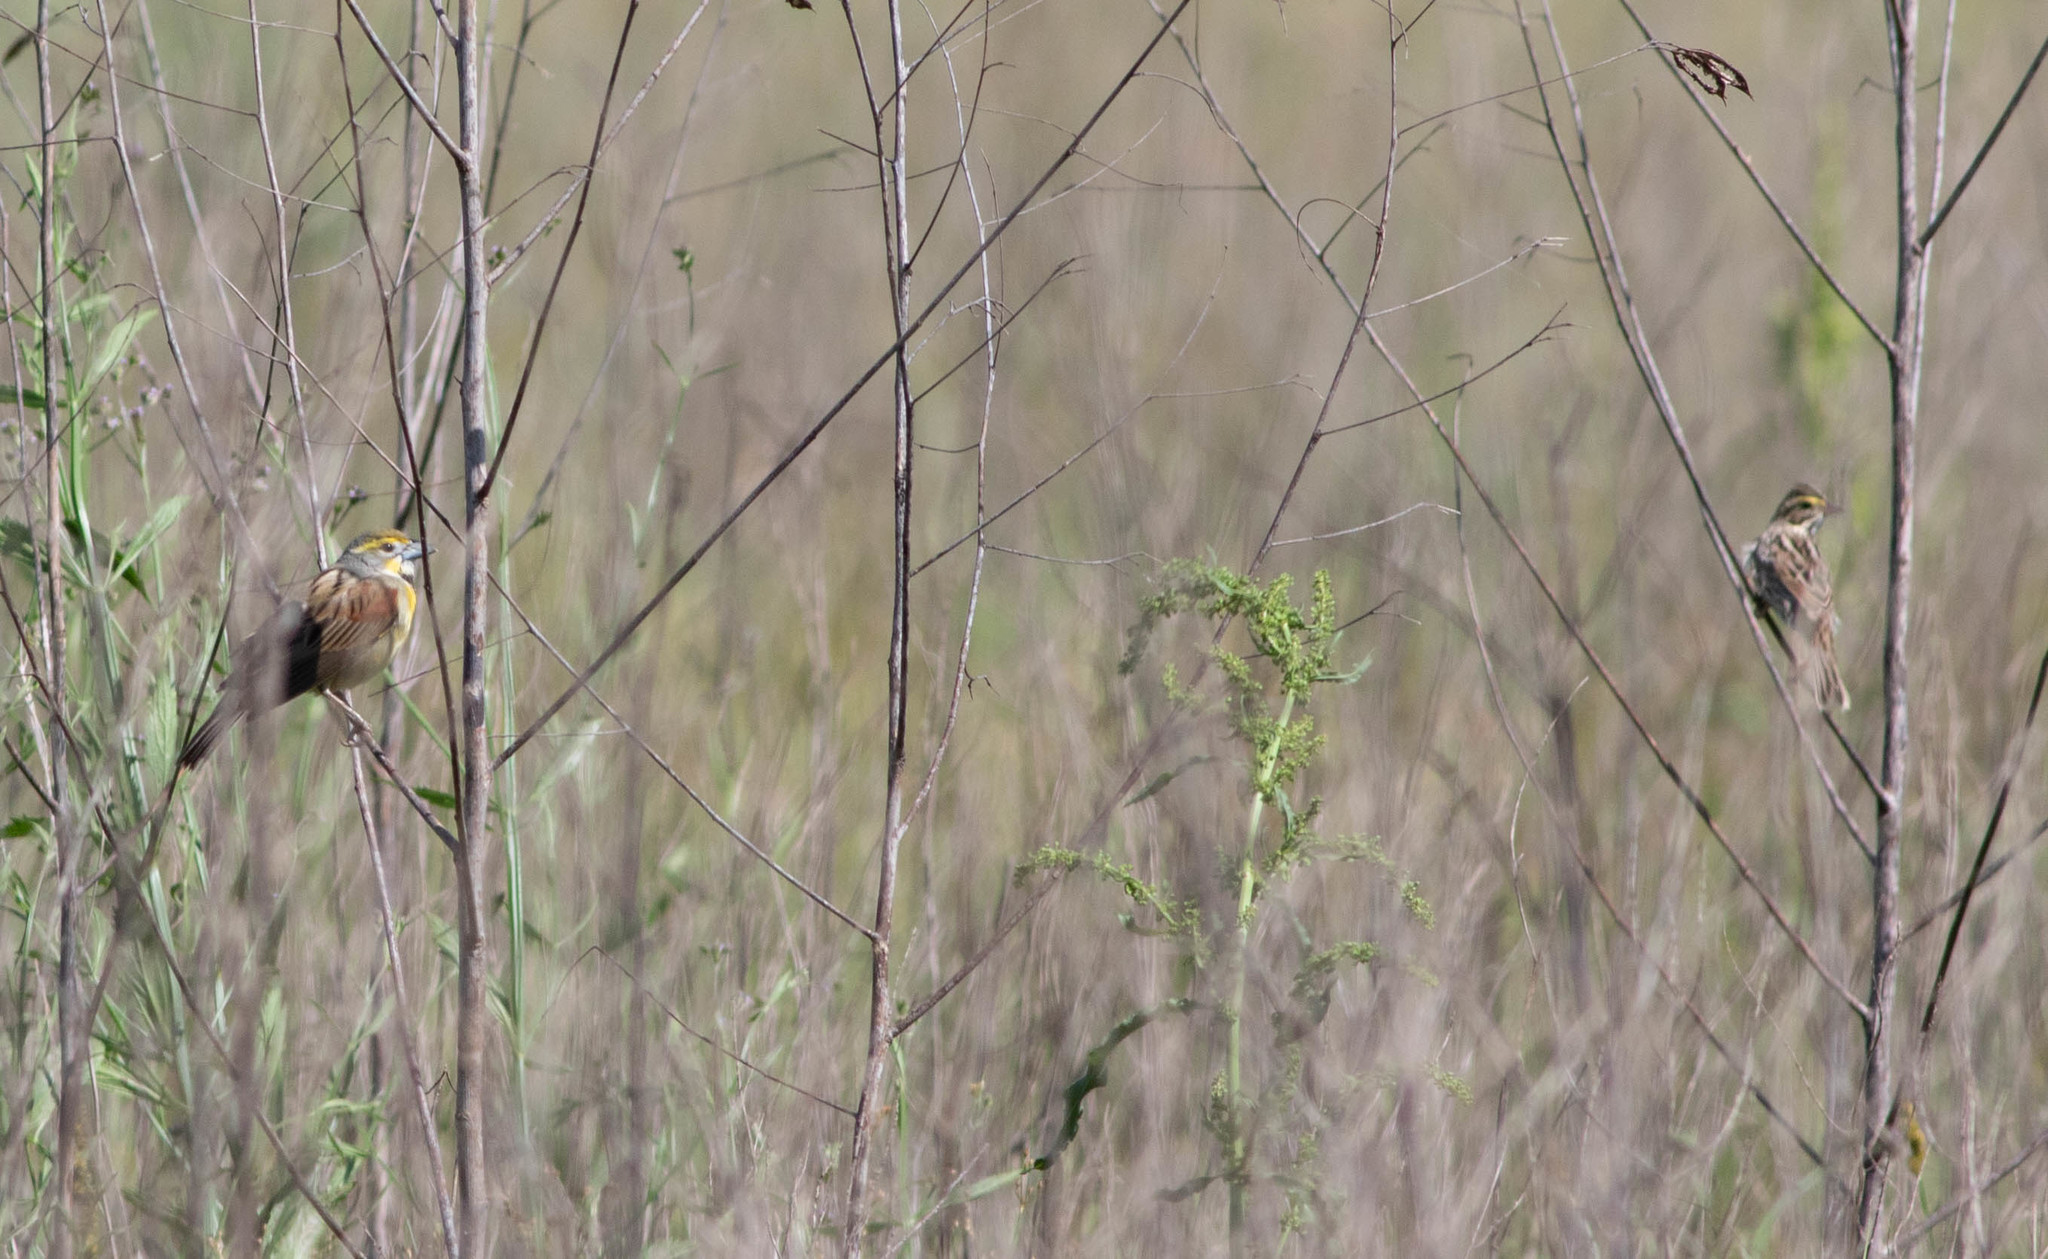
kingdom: Animalia
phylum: Chordata
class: Aves
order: Passeriformes
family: Cardinalidae
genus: Spiza
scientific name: Spiza americana
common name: Dickcissel
